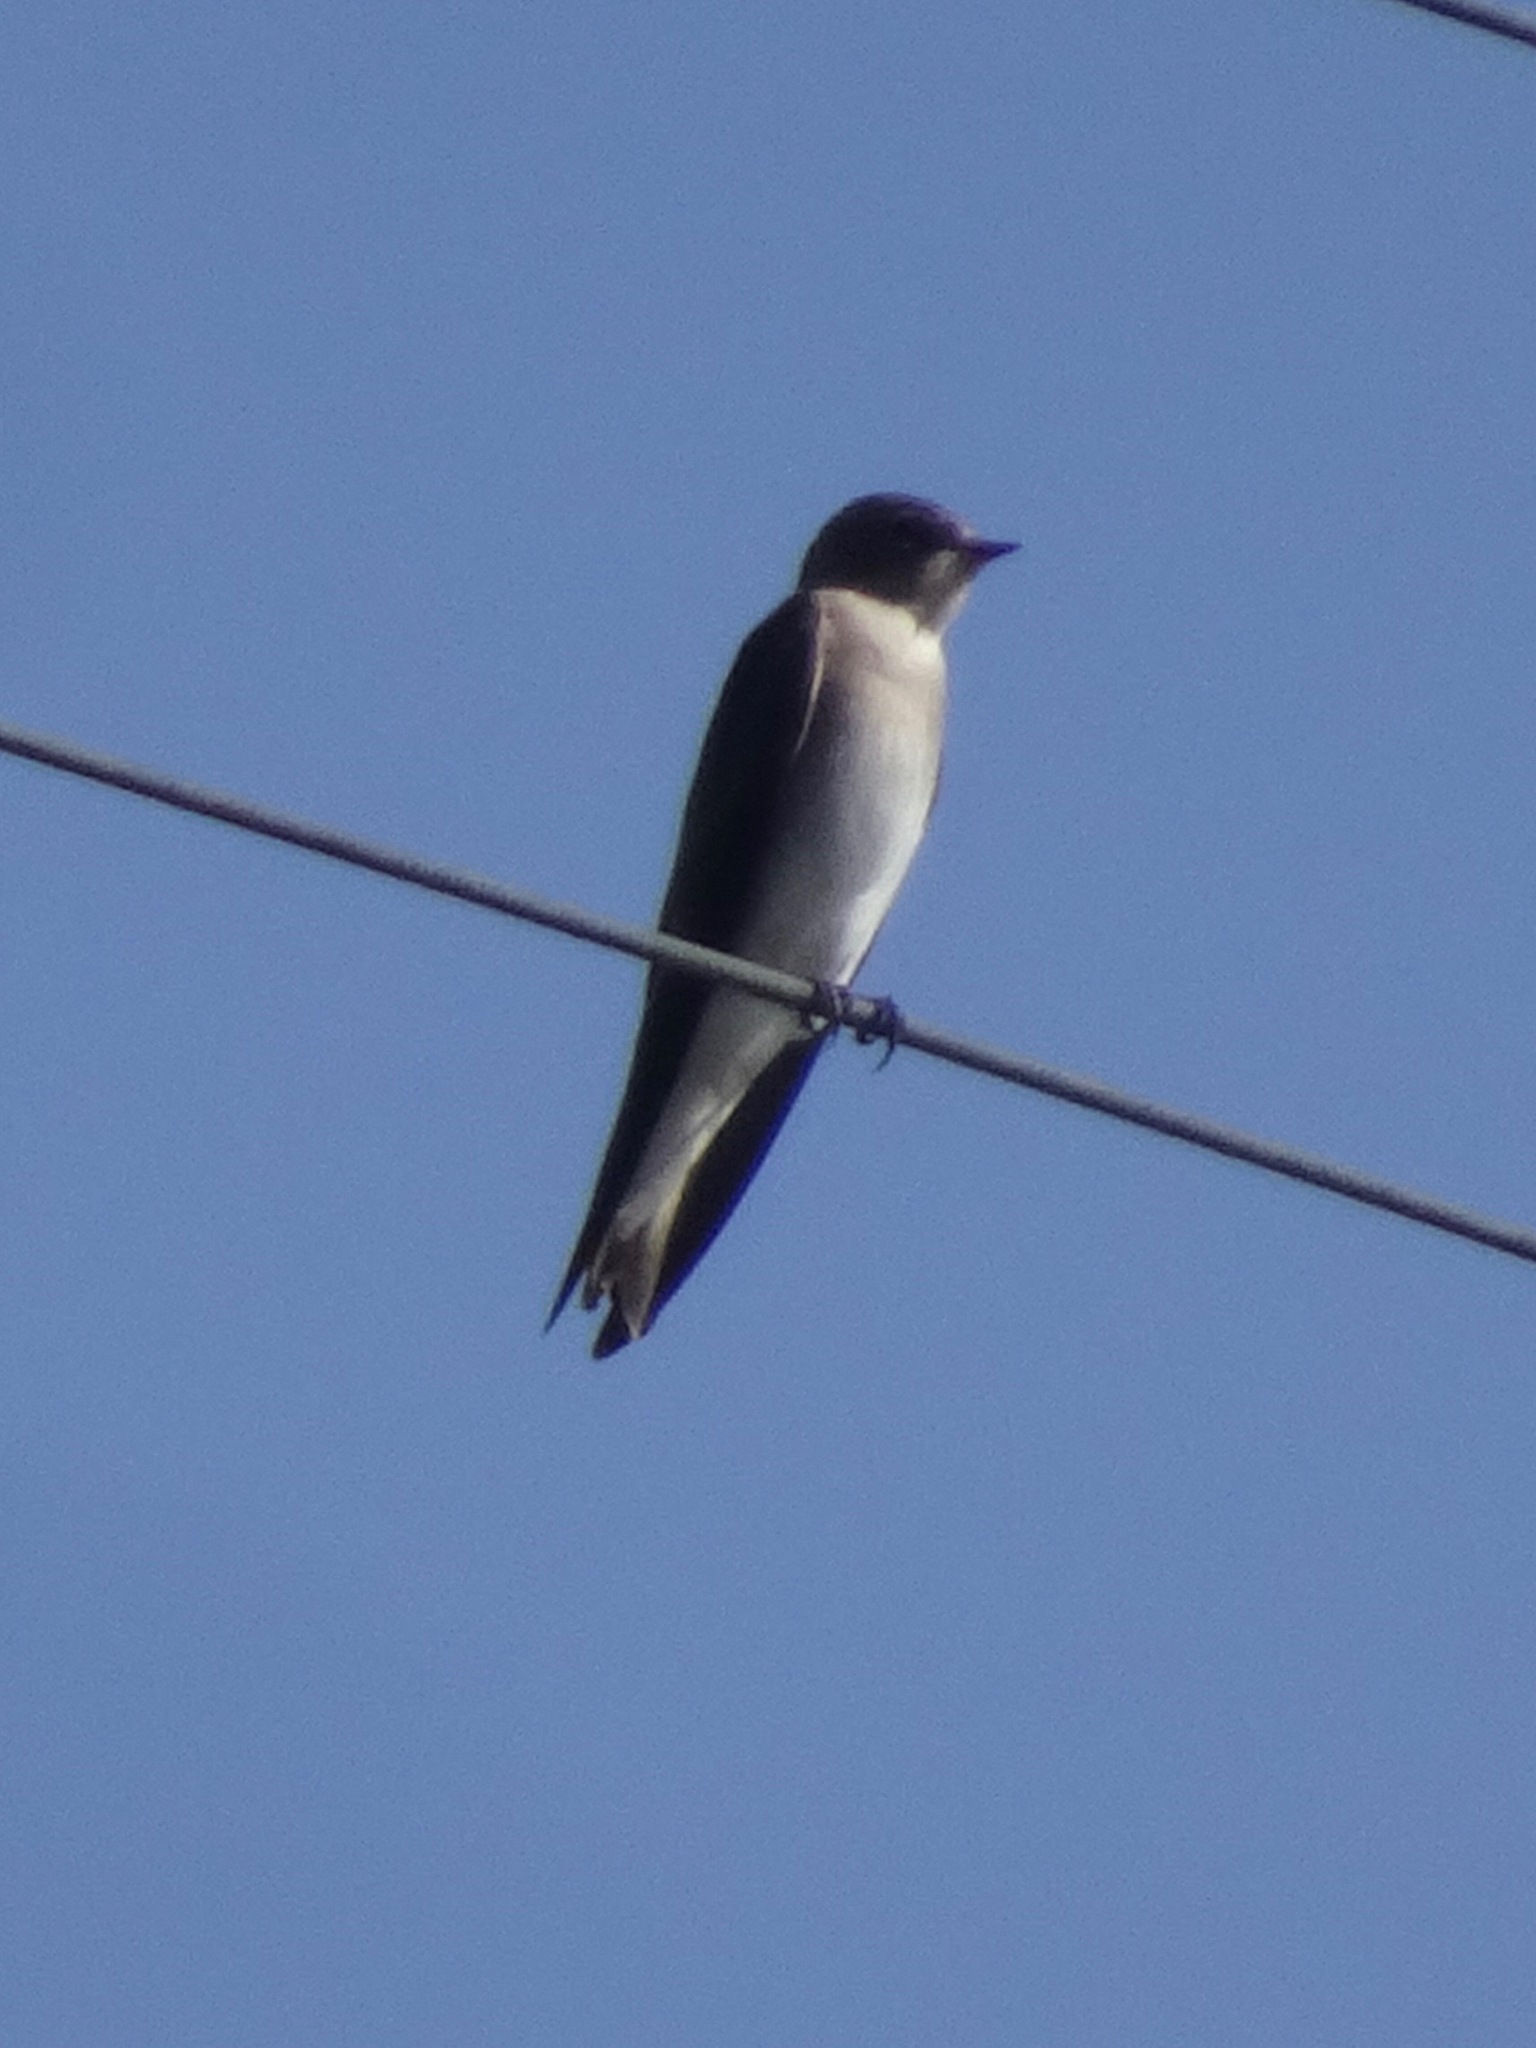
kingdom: Animalia
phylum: Chordata
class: Aves
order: Passeriformes
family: Hirundinidae
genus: Stelgidopteryx
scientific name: Stelgidopteryx serripennis
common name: Northern rough-winged swallow
